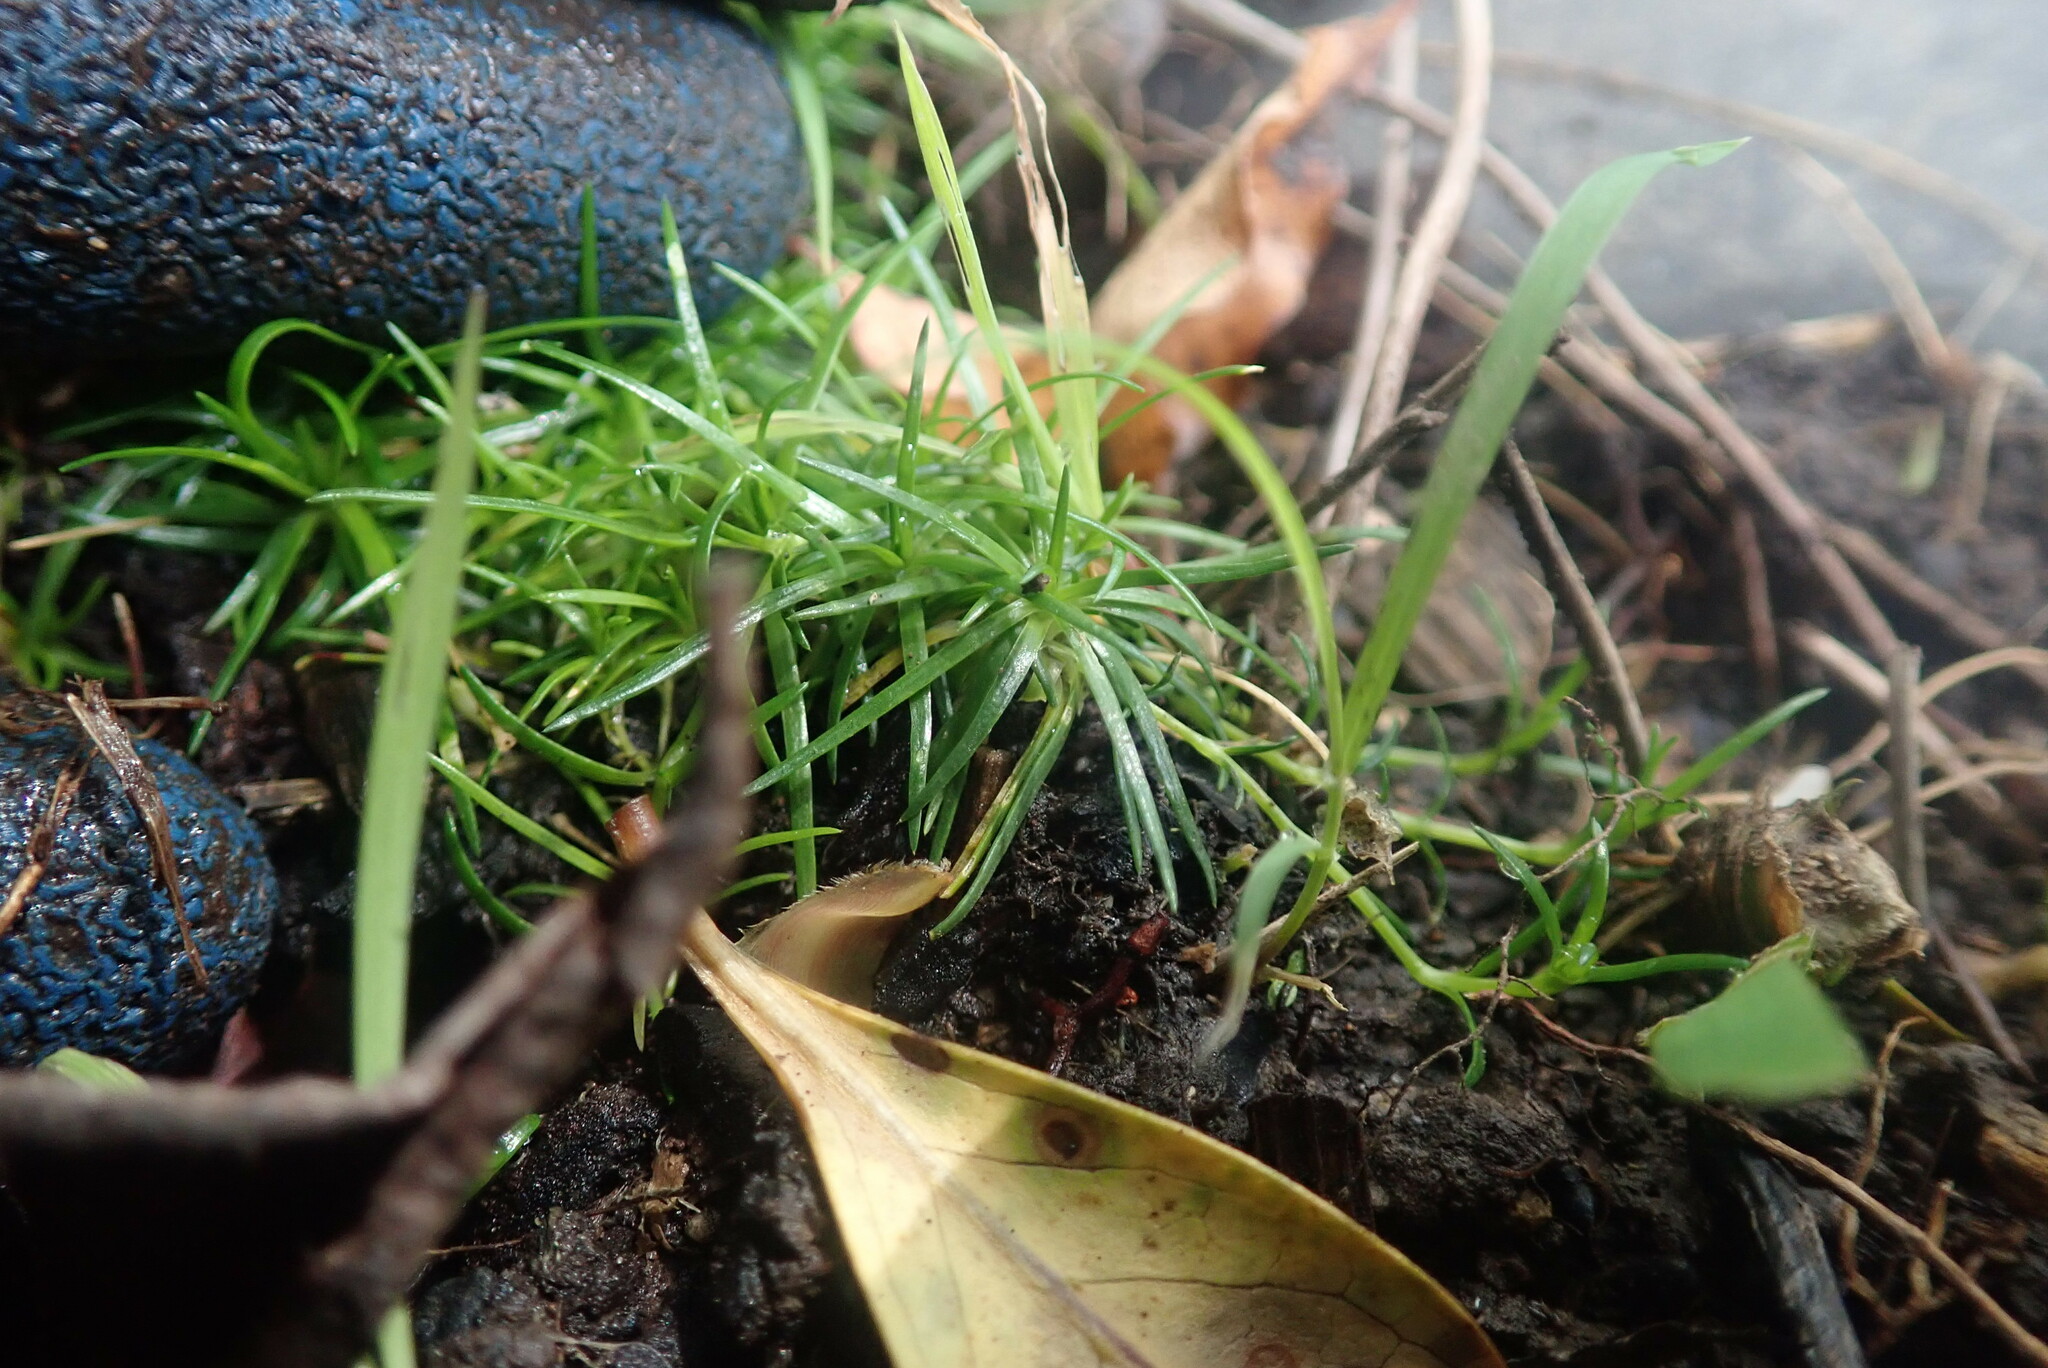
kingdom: Plantae
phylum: Tracheophyta
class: Magnoliopsida
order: Caryophyllales
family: Caryophyllaceae
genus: Sagina
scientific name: Sagina procumbens
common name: Procumbent pearlwort
